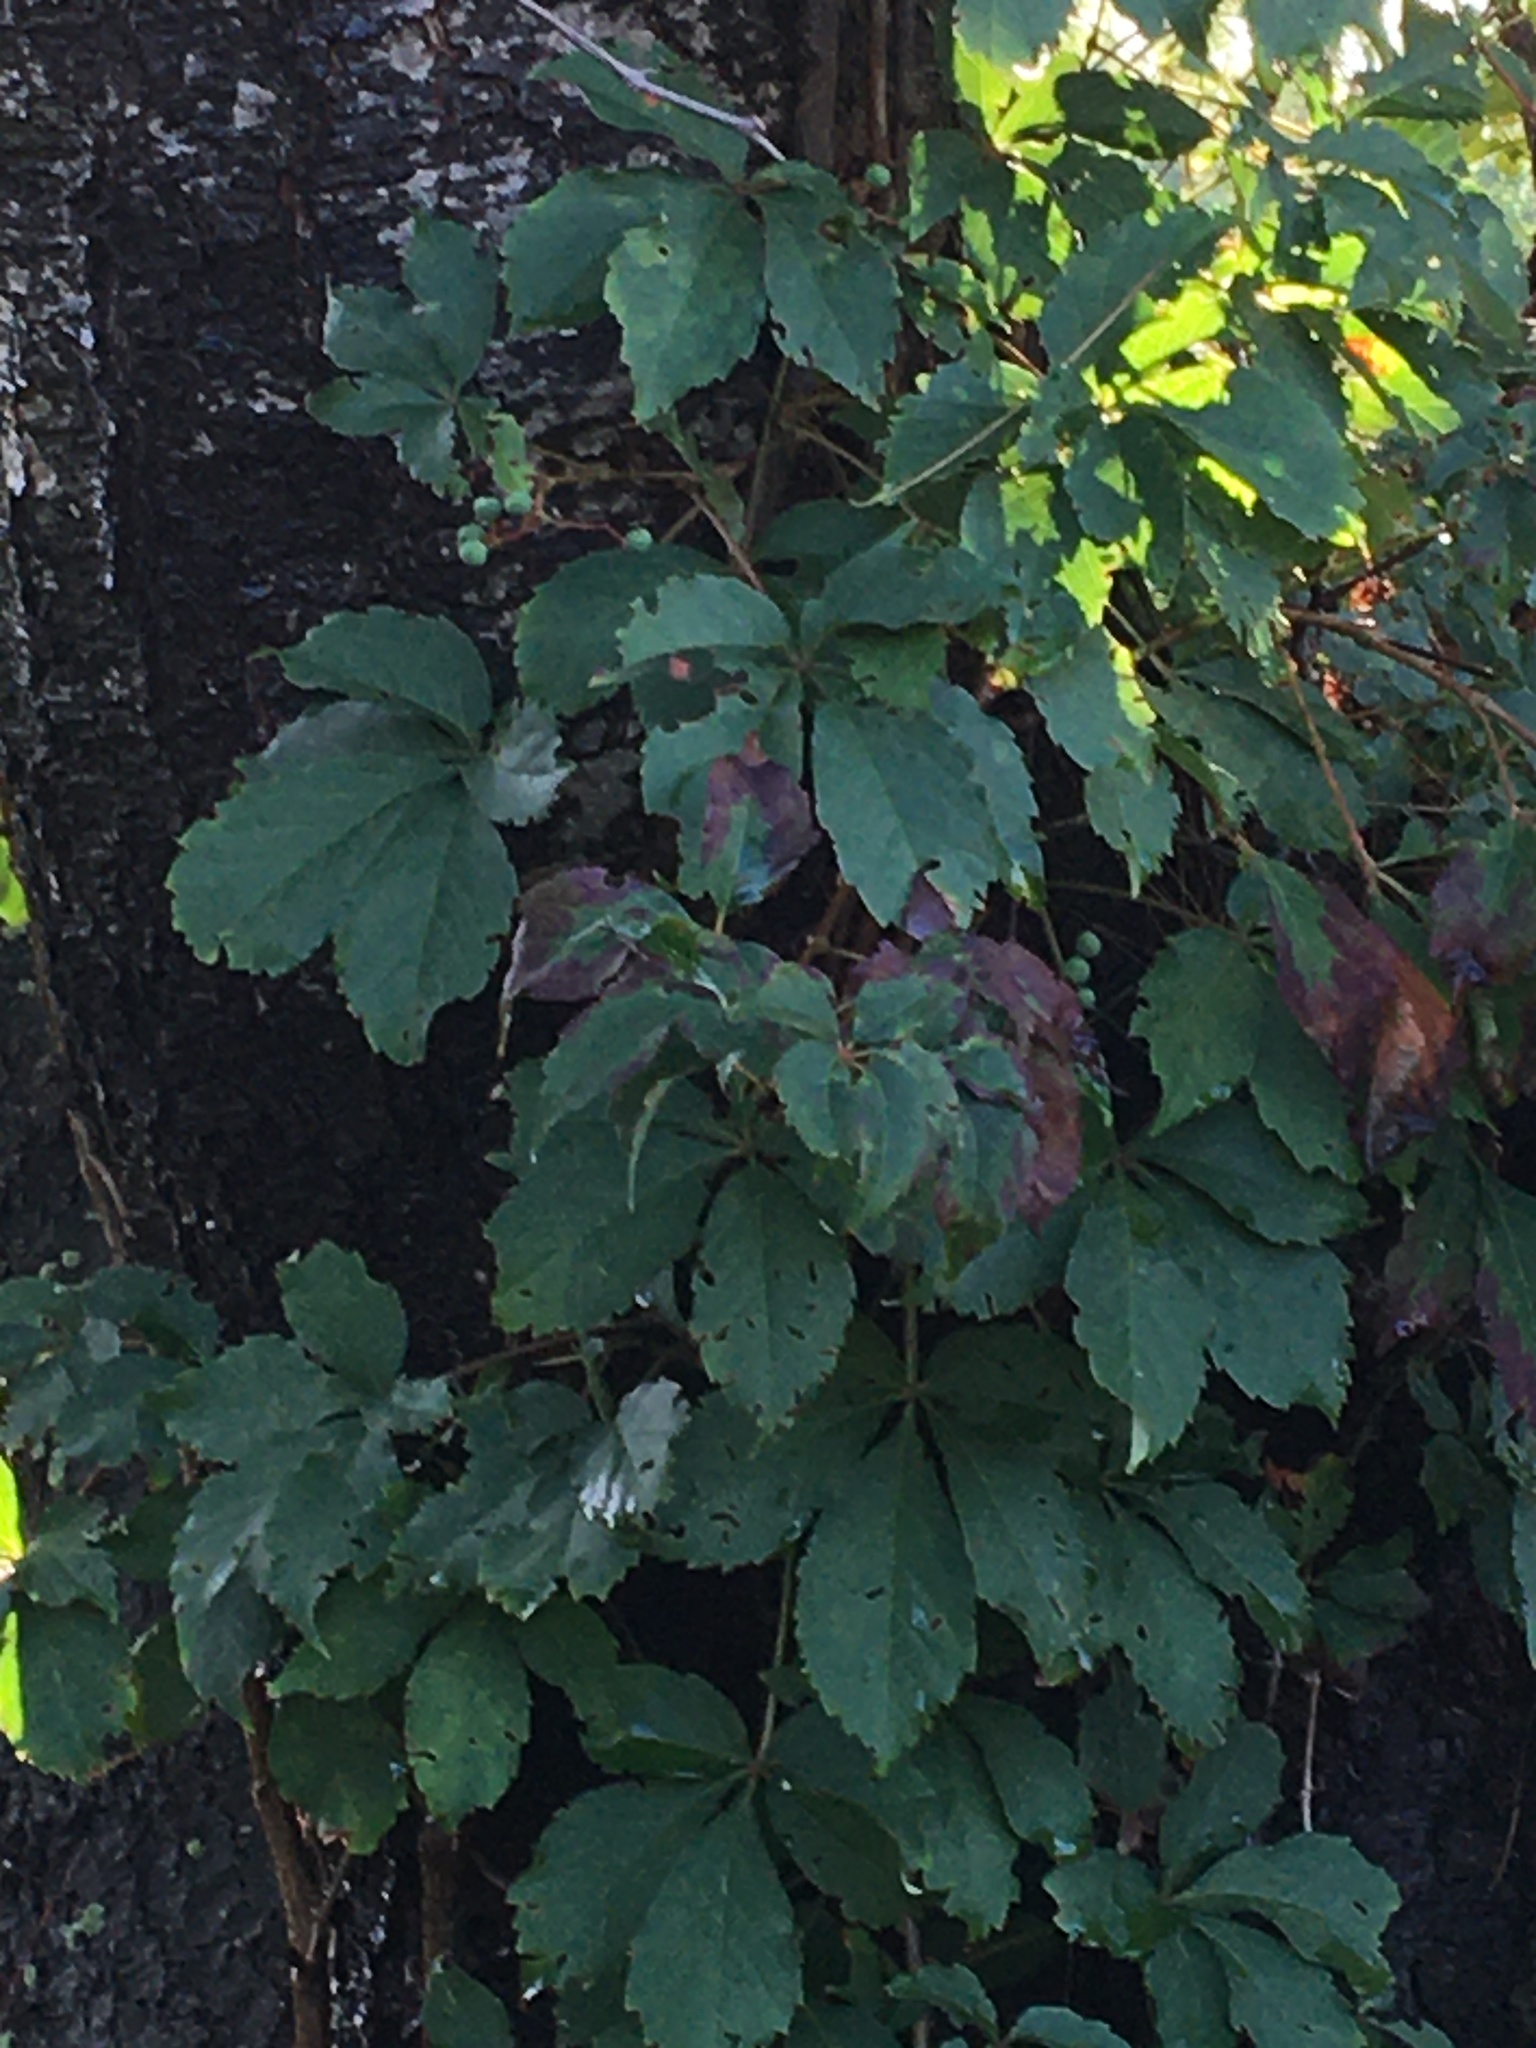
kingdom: Plantae
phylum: Tracheophyta
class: Magnoliopsida
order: Vitales
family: Vitaceae
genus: Parthenocissus
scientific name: Parthenocissus quinquefolia
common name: Virginia-creeper
